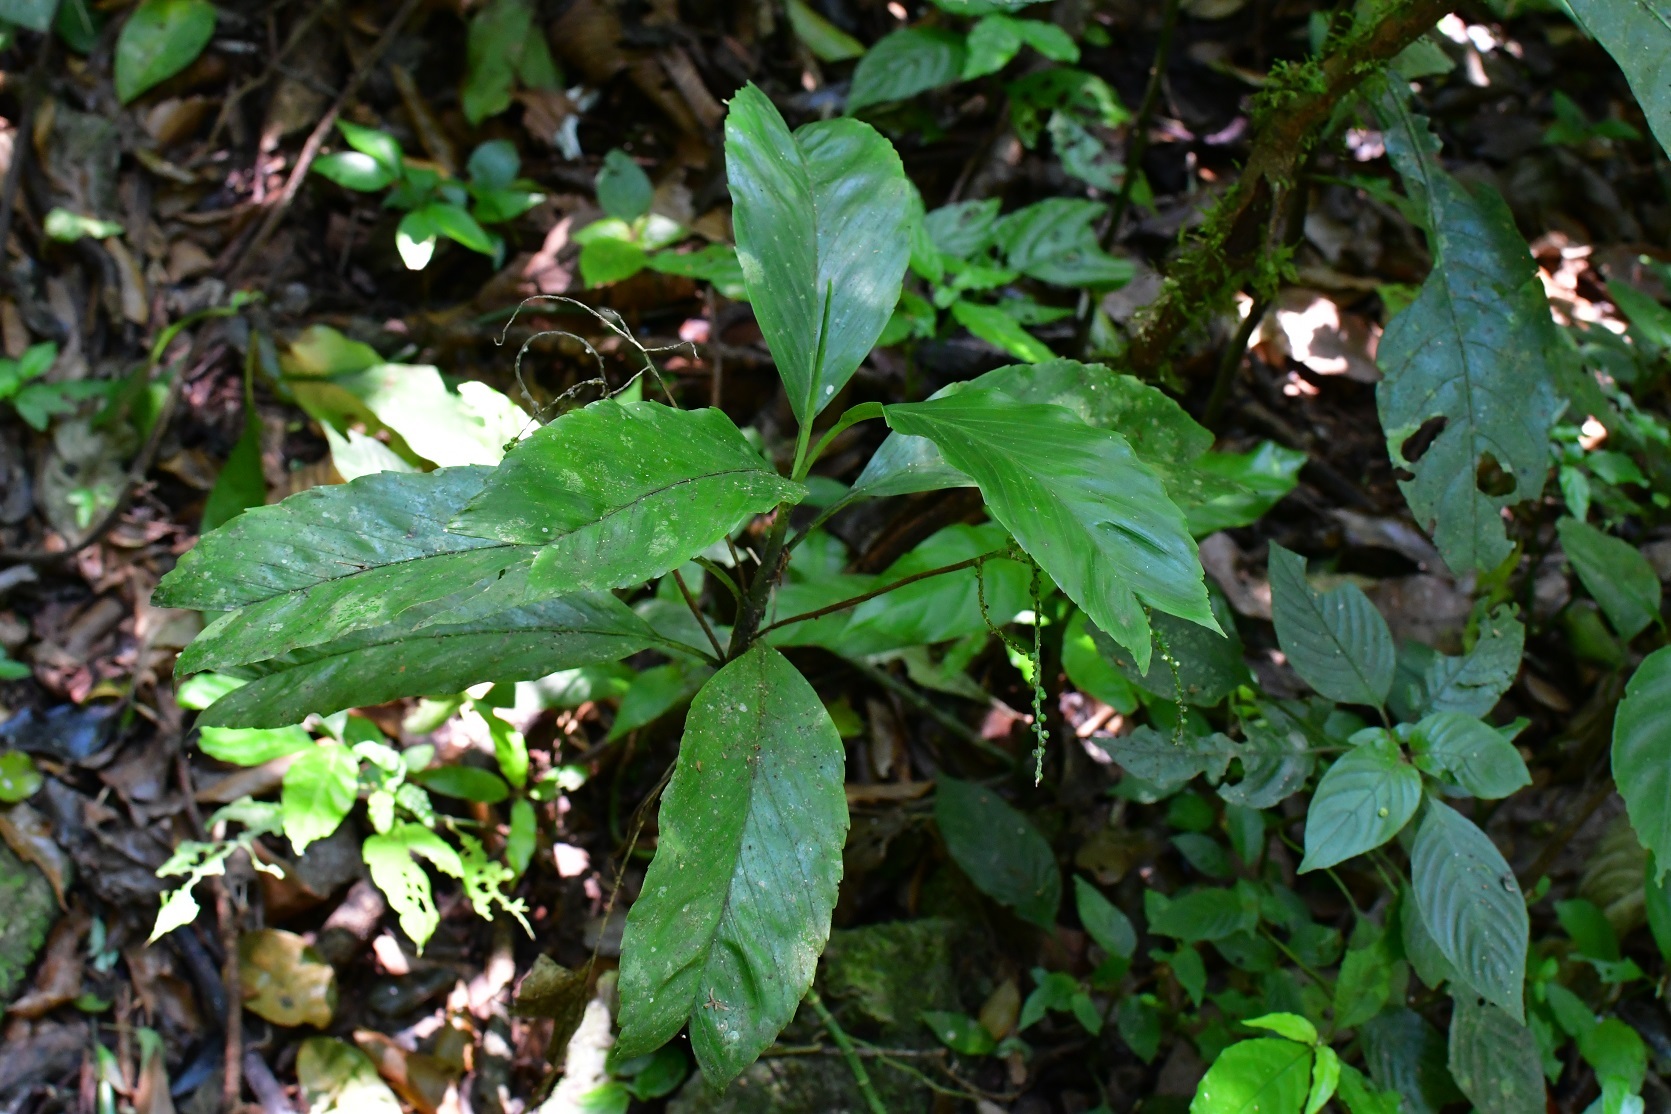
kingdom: Plantae
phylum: Tracheophyta
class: Liliopsida
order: Arecales
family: Arecaceae
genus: Chamaedorea
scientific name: Chamaedorea geonomiformis
